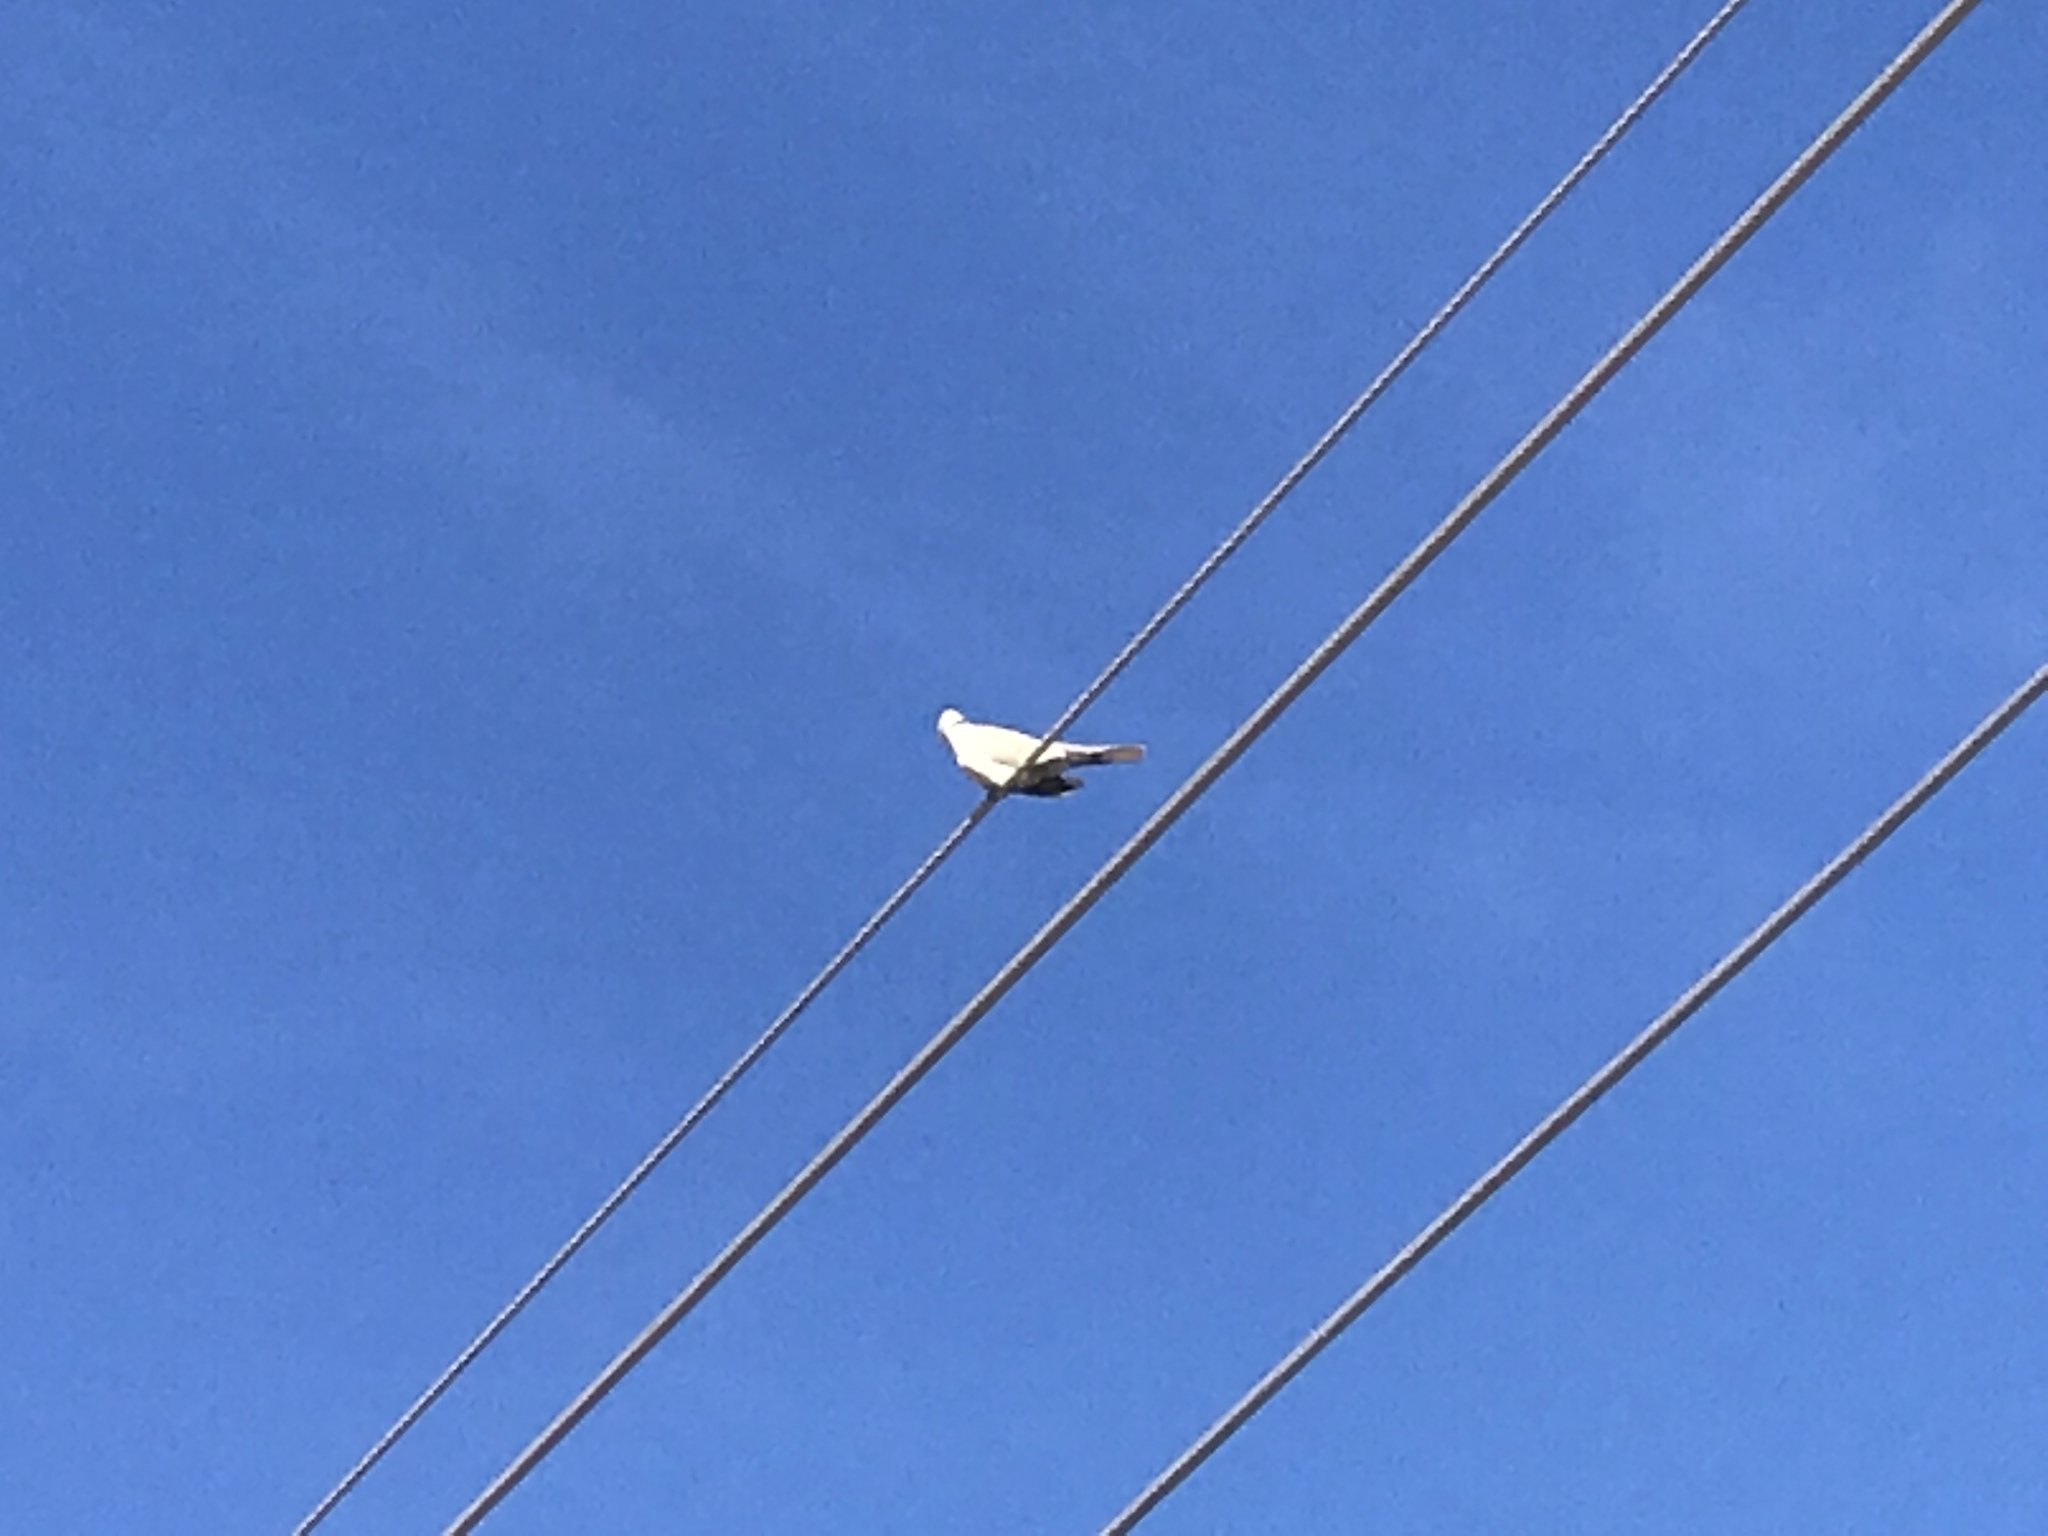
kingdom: Animalia
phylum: Chordata
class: Aves
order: Columbiformes
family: Columbidae
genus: Streptopelia
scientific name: Streptopelia decaocto
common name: Eurasian collared dove
